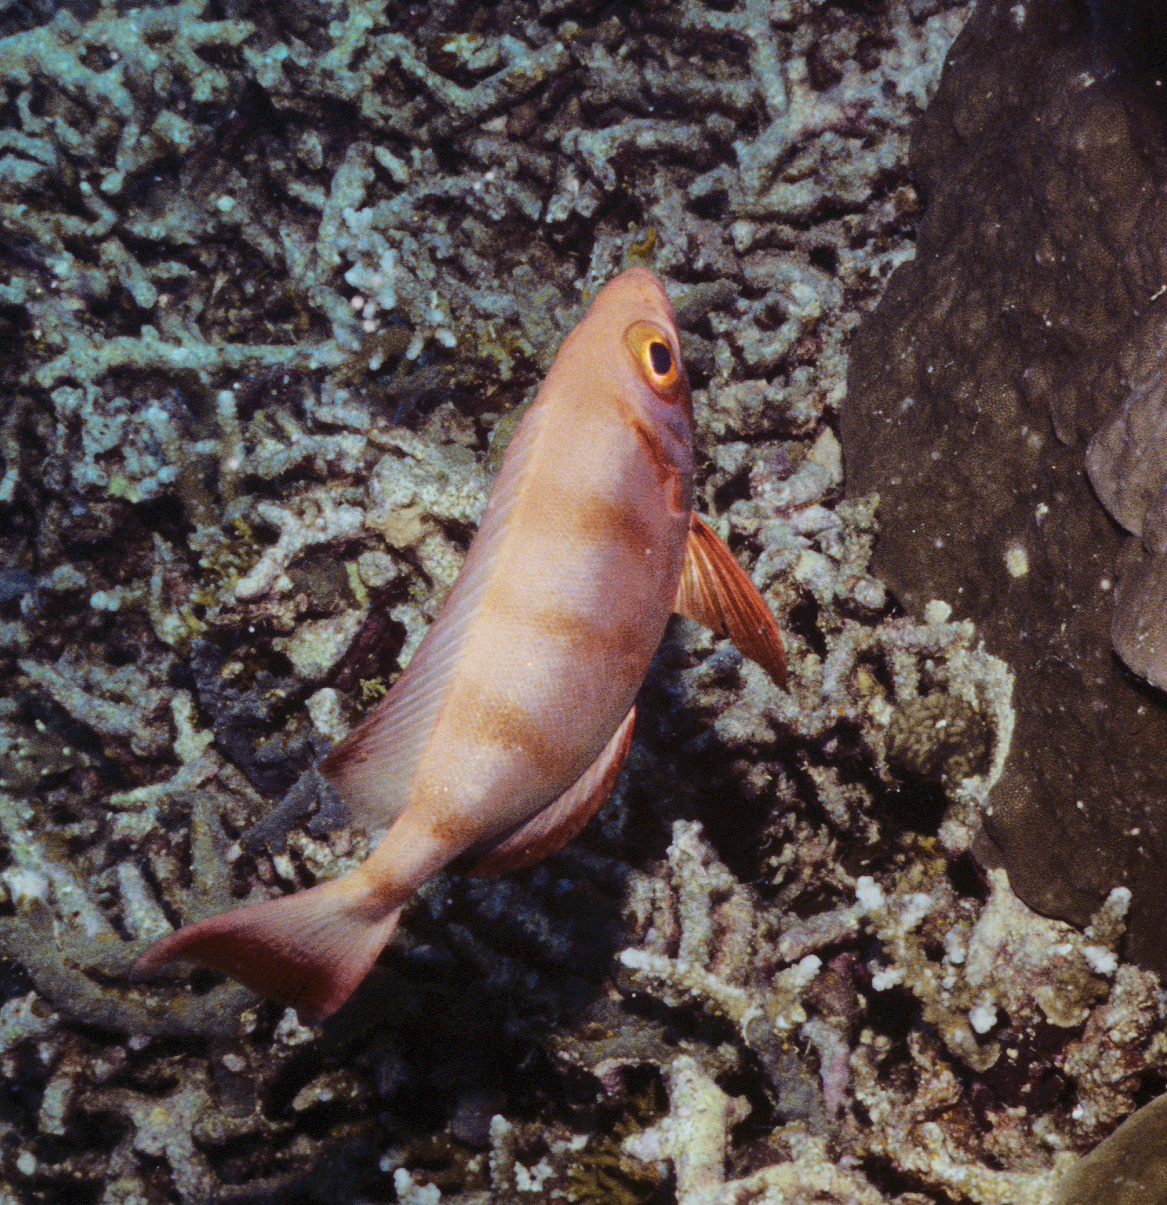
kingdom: Animalia
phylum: Chordata
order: Perciformes
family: Priacanthidae
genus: Priacanthus
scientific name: Priacanthus hamrur
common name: Moontail bullseye
